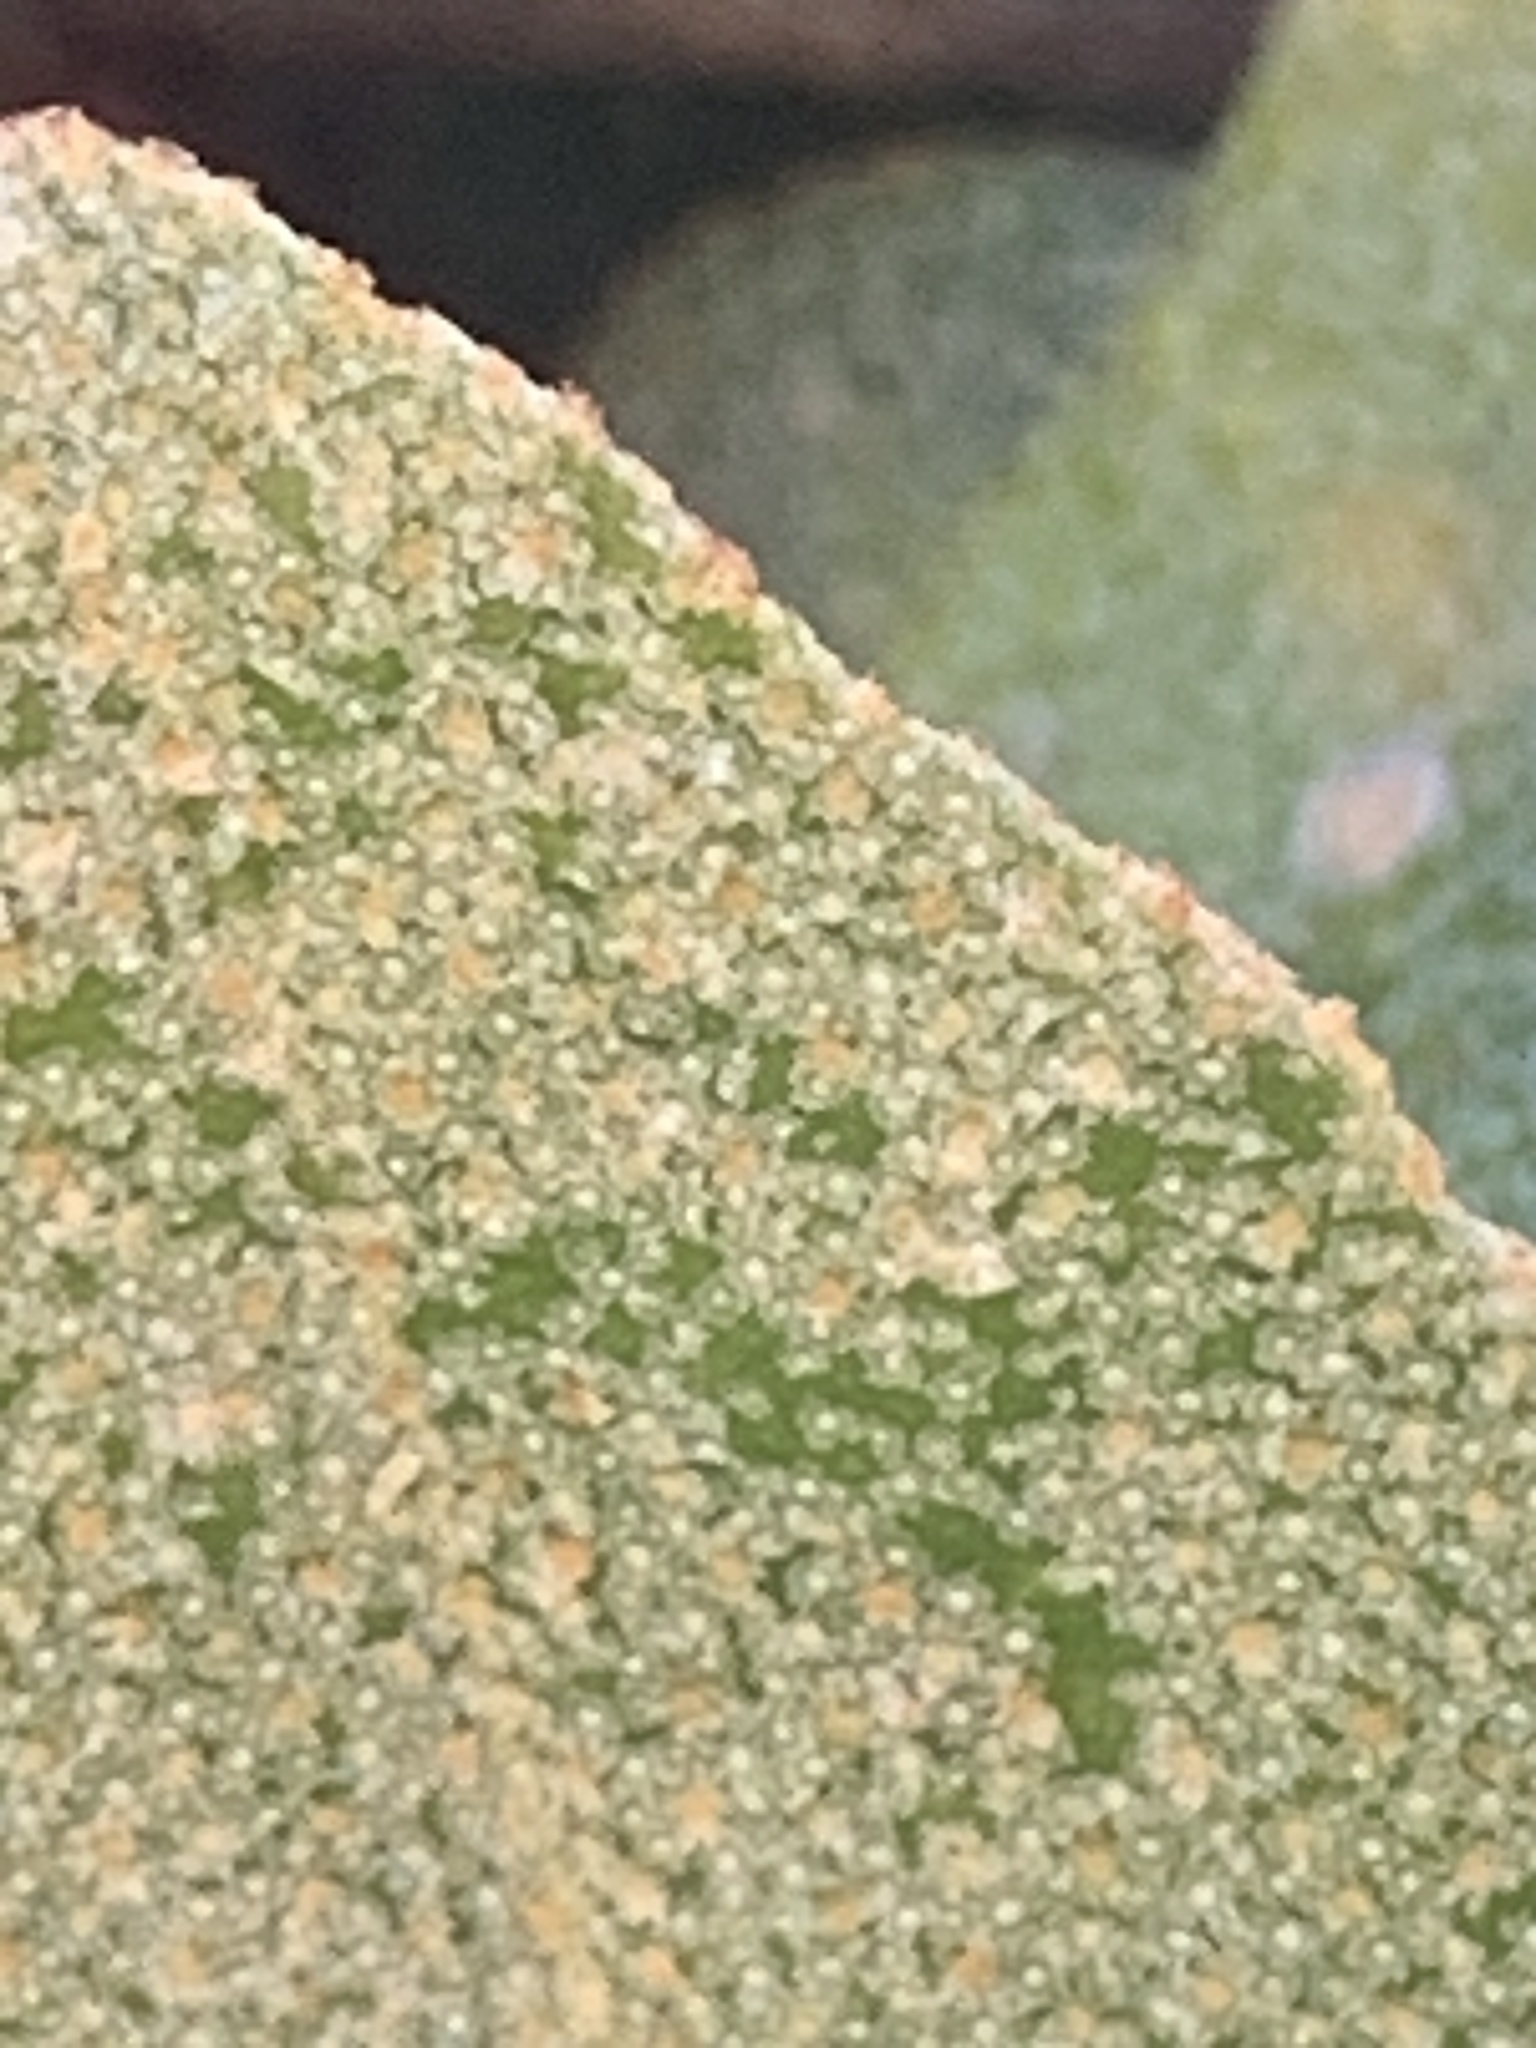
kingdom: Plantae
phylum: Tracheophyta
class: Magnoliopsida
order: Rosales
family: Elaeagnaceae
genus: Elaeagnus
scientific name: Elaeagnus pungens
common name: Spiny oleaster
